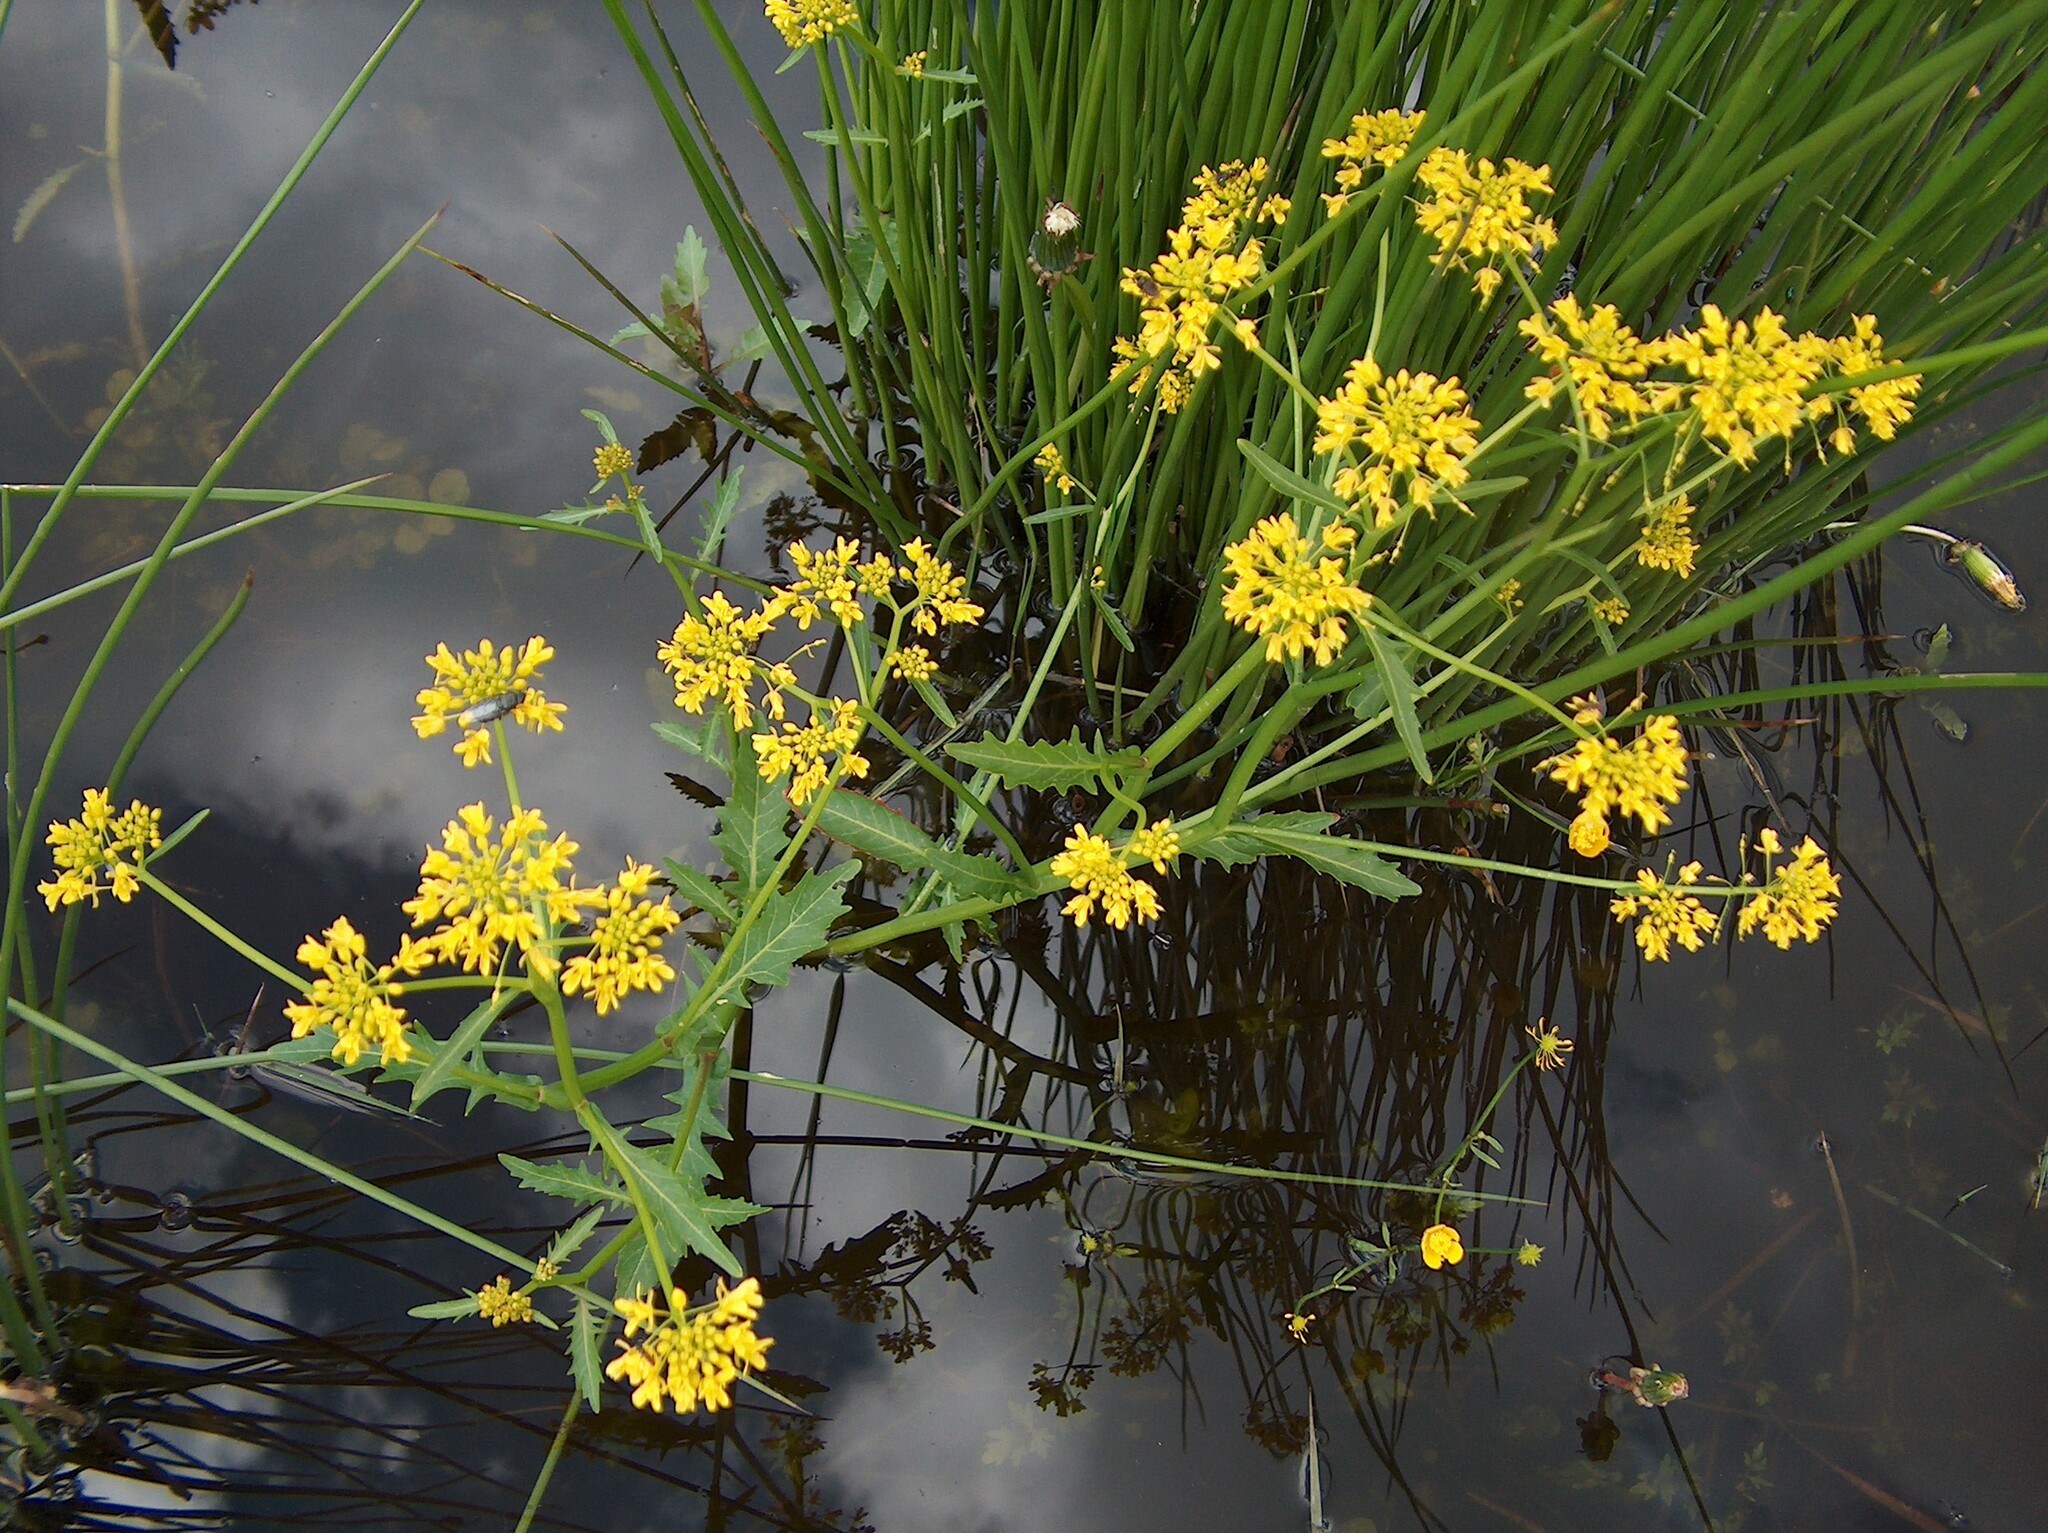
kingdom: Plantae
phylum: Tracheophyta
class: Magnoliopsida
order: Brassicales
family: Brassicaceae
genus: Rorippa
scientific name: Rorippa amphibia
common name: Great yellow-cress
